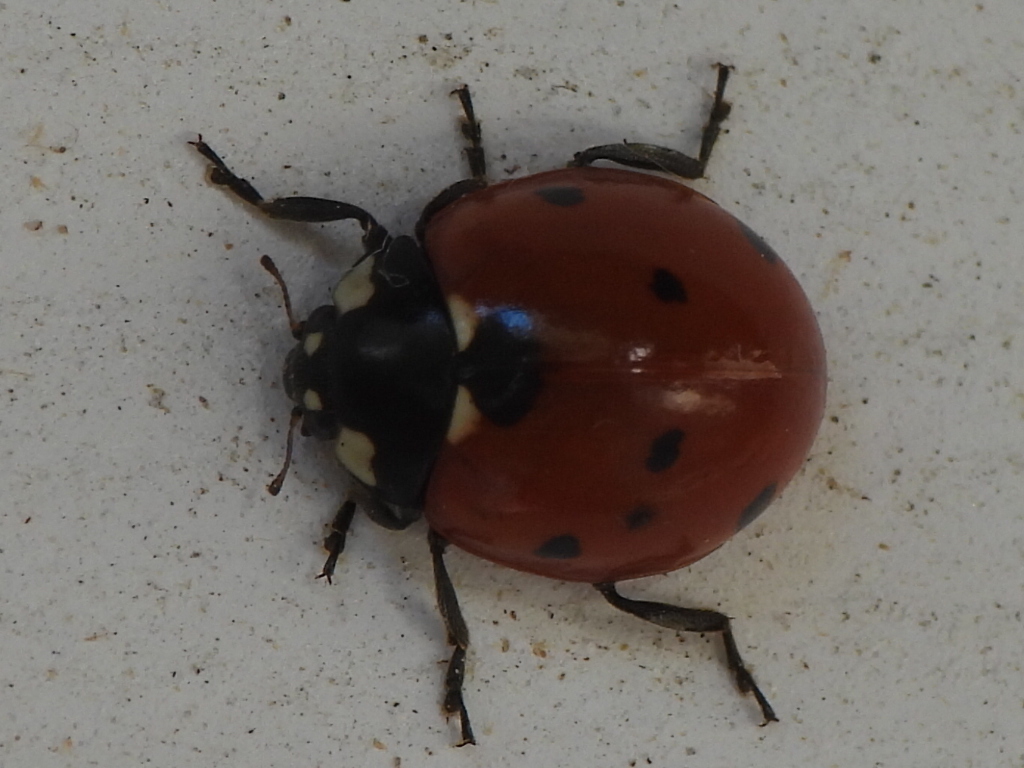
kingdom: Animalia
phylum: Arthropoda
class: Insecta
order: Coleoptera
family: Coccinellidae
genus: Coccinella
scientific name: Coccinella septempunctata
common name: Sevenspotted lady beetle
